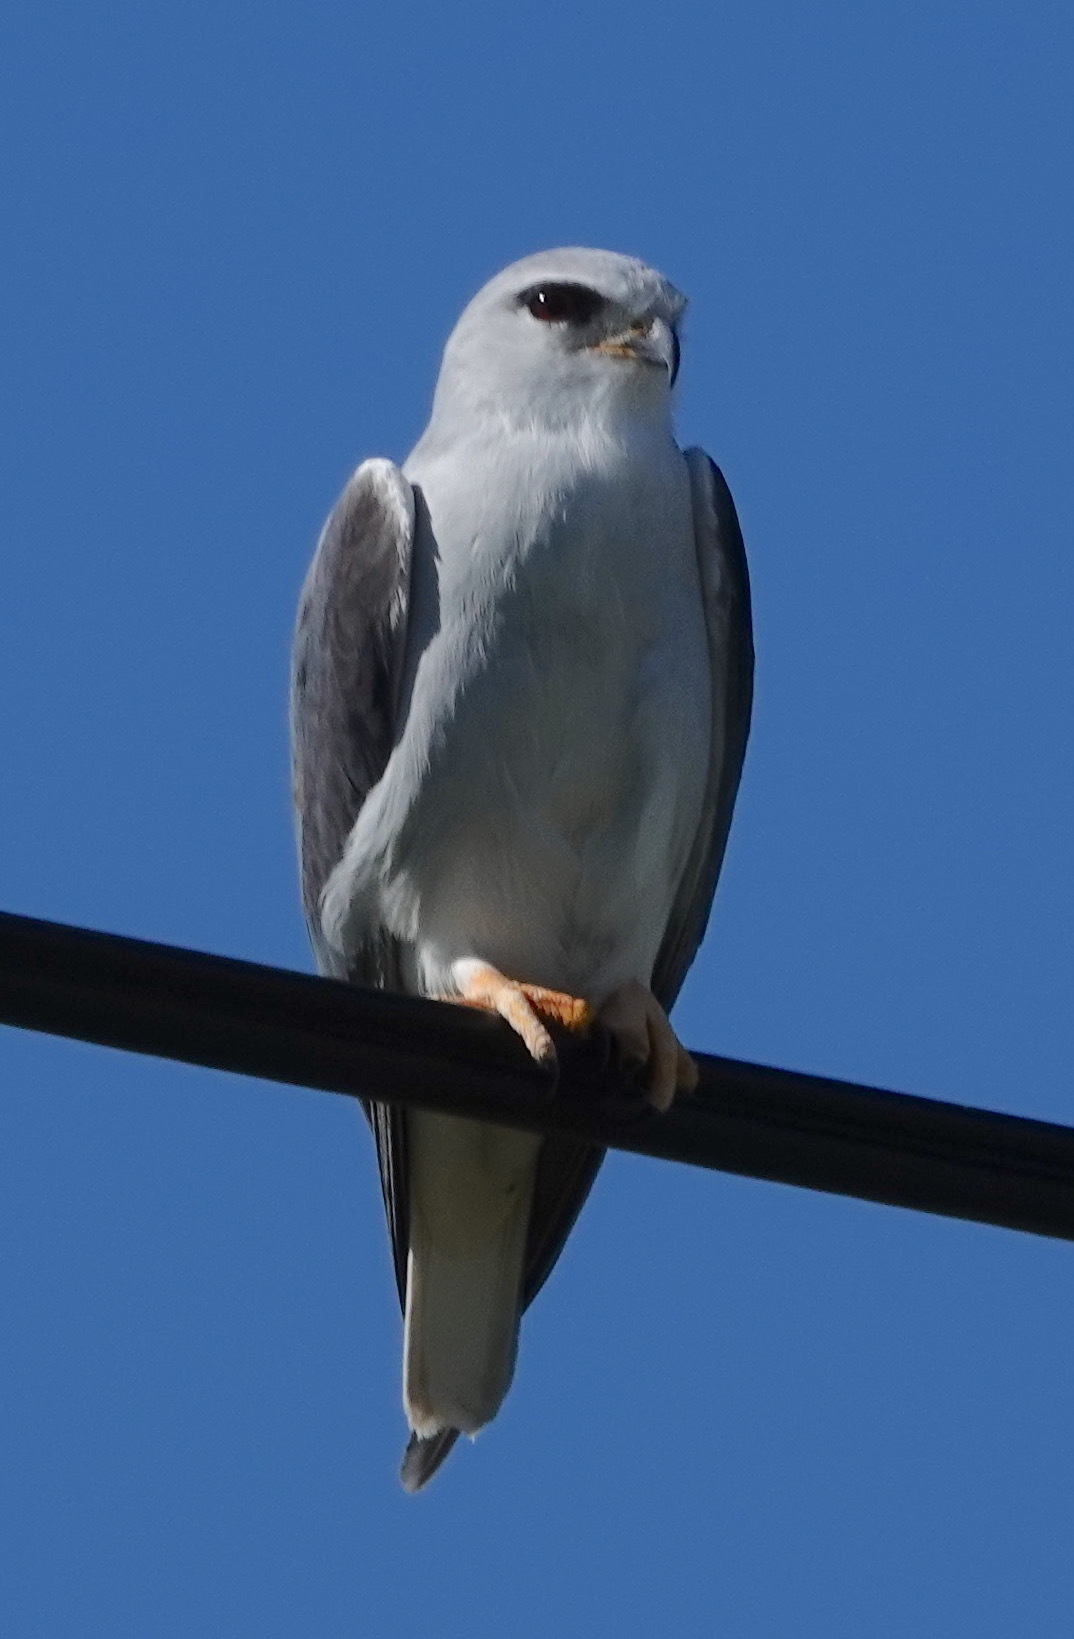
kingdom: Animalia
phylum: Chordata
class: Aves
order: Accipitriformes
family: Accipitridae
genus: Elanus
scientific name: Elanus caeruleus
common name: Black-winged kite
